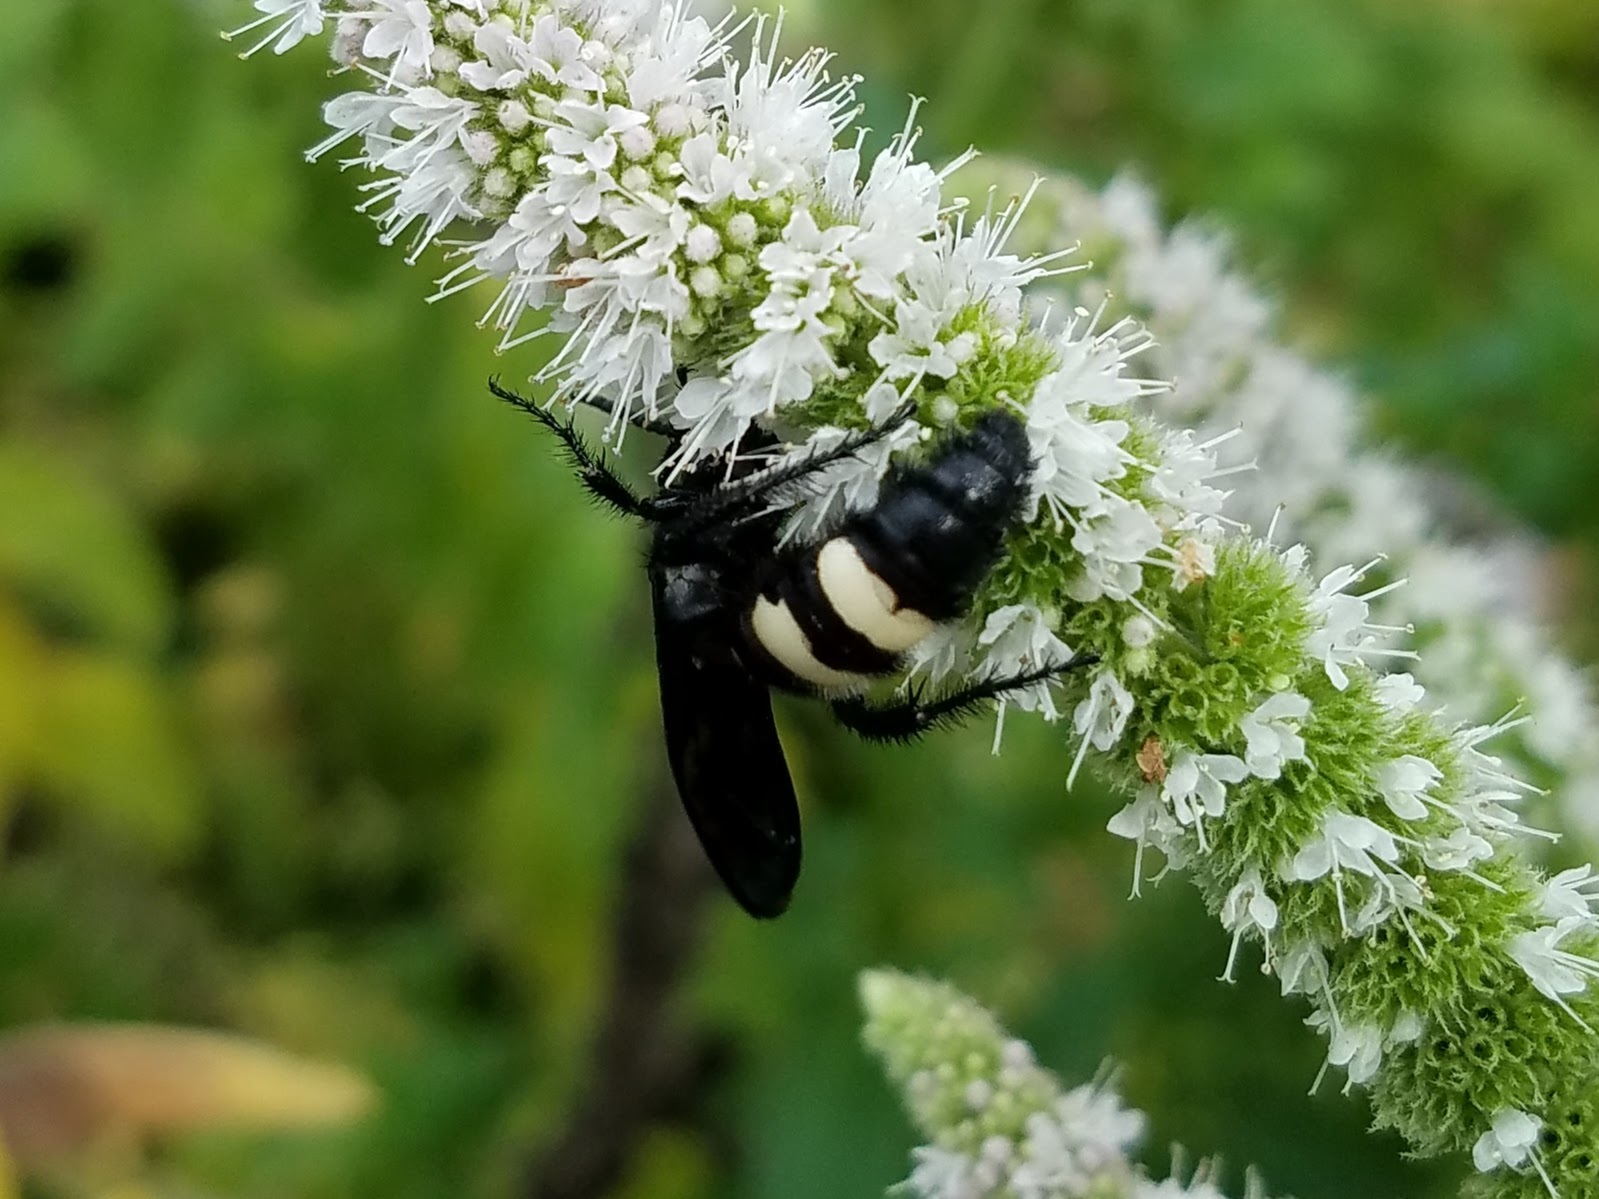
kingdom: Animalia
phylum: Arthropoda
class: Insecta
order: Hymenoptera
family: Scoliidae
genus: Scolia
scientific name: Scolia bicincta
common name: Double-banded scoliid wasp
